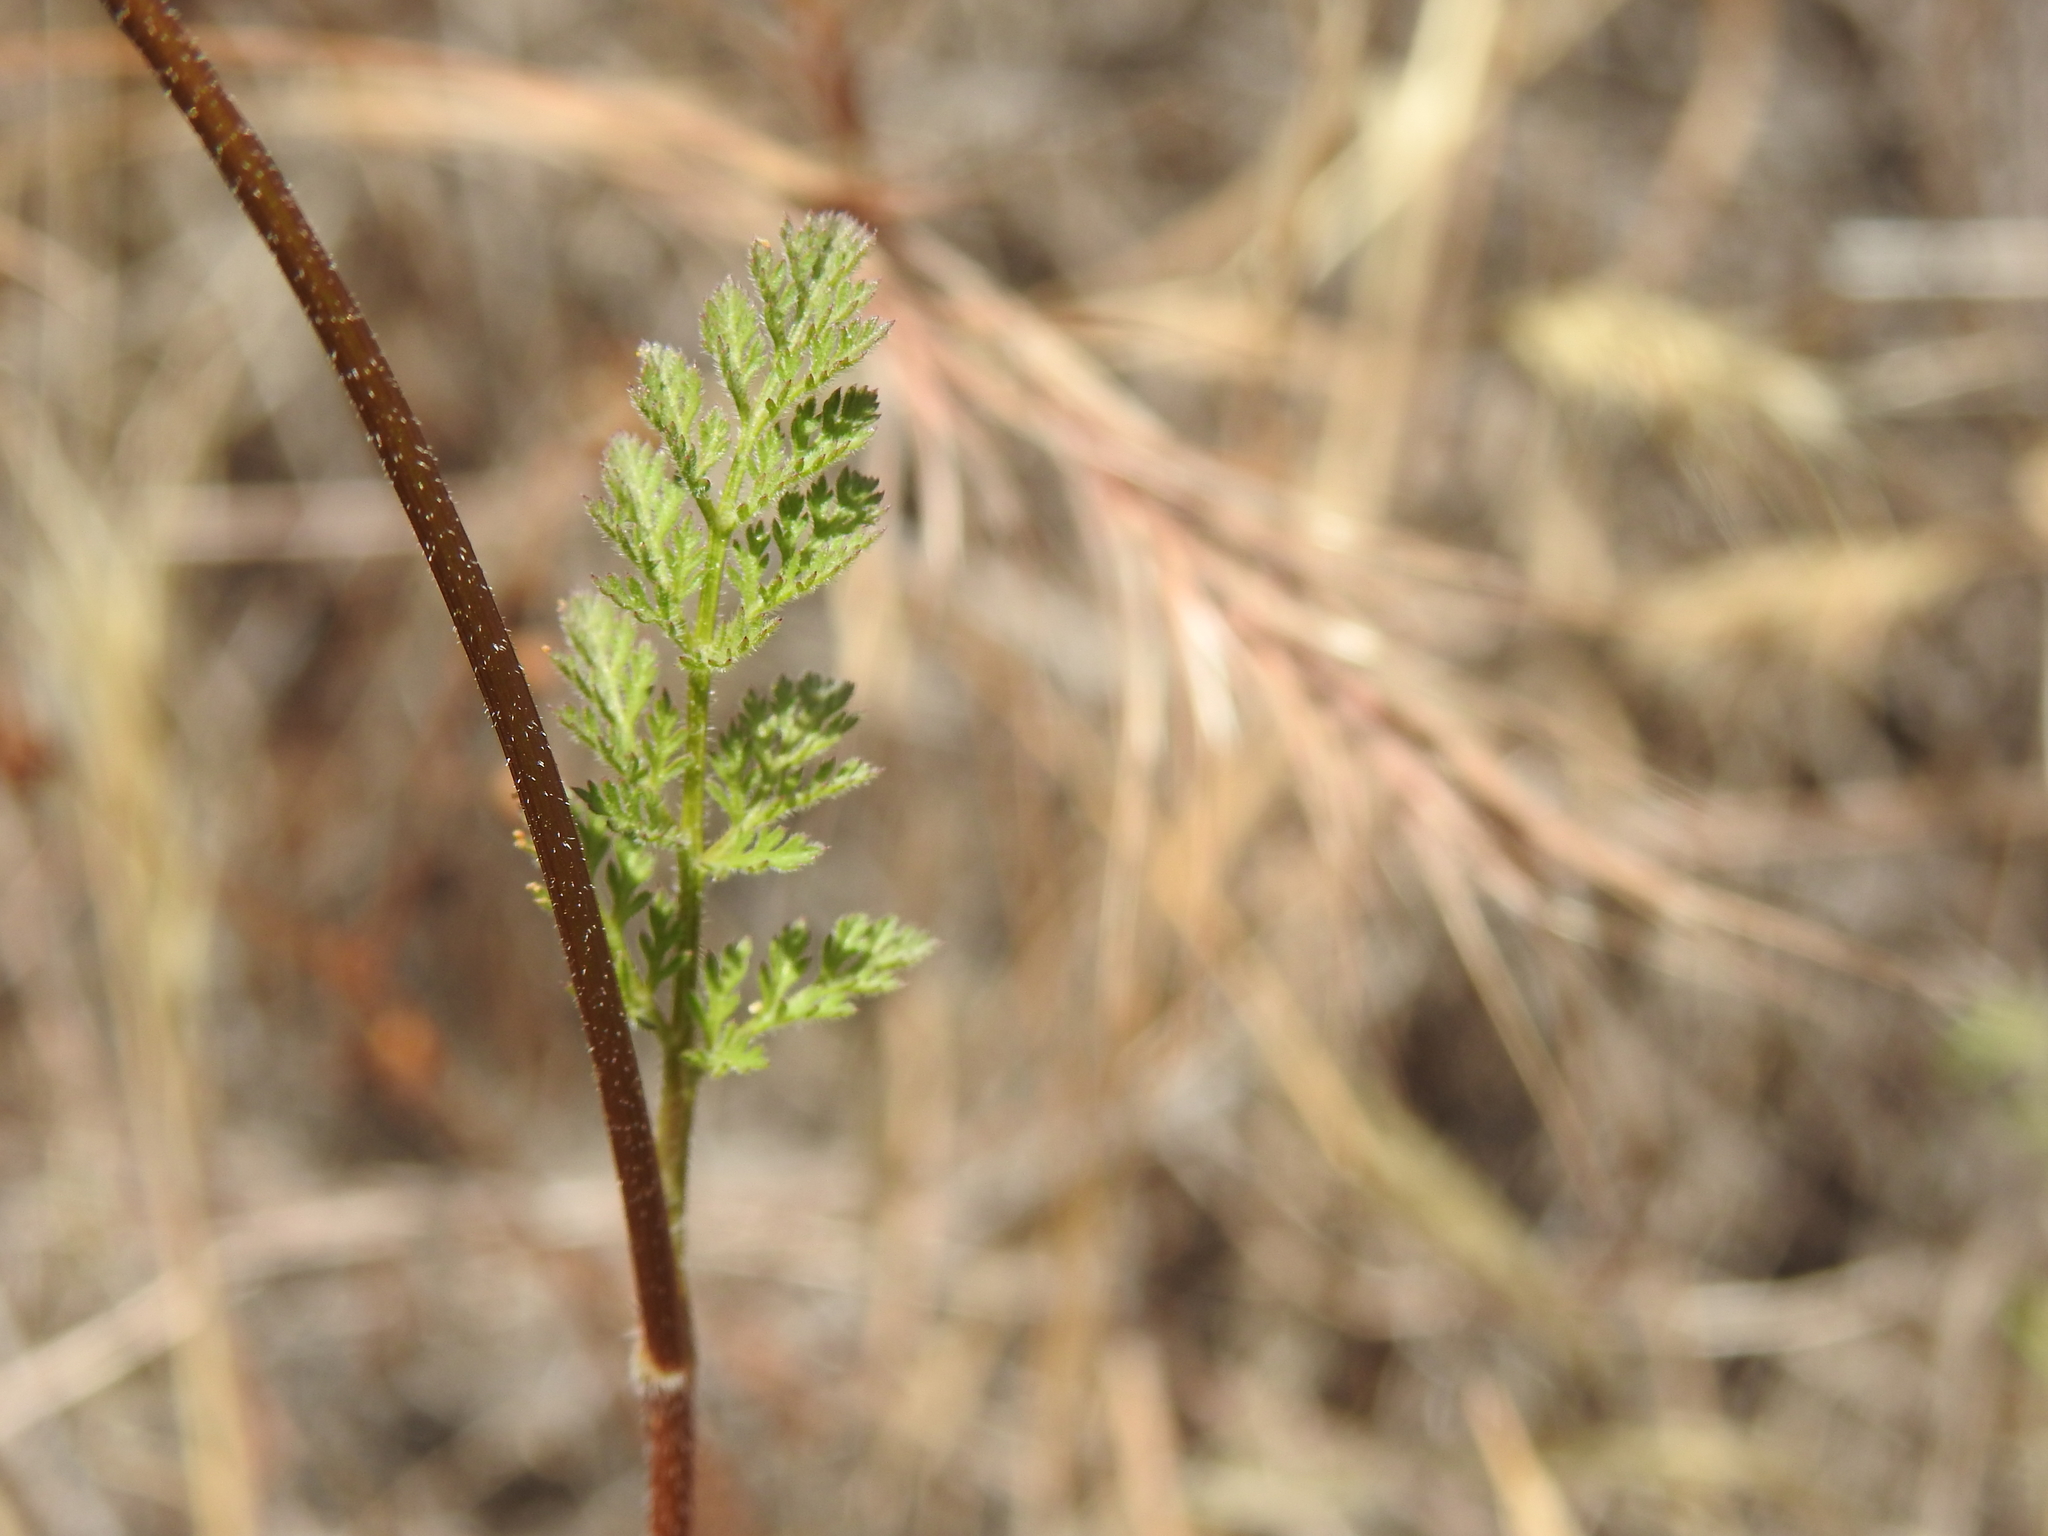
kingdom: Plantae
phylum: Tracheophyta
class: Magnoliopsida
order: Apiales
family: Apiaceae
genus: Daucus
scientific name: Daucus pusillus
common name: Southwest wild carrot
